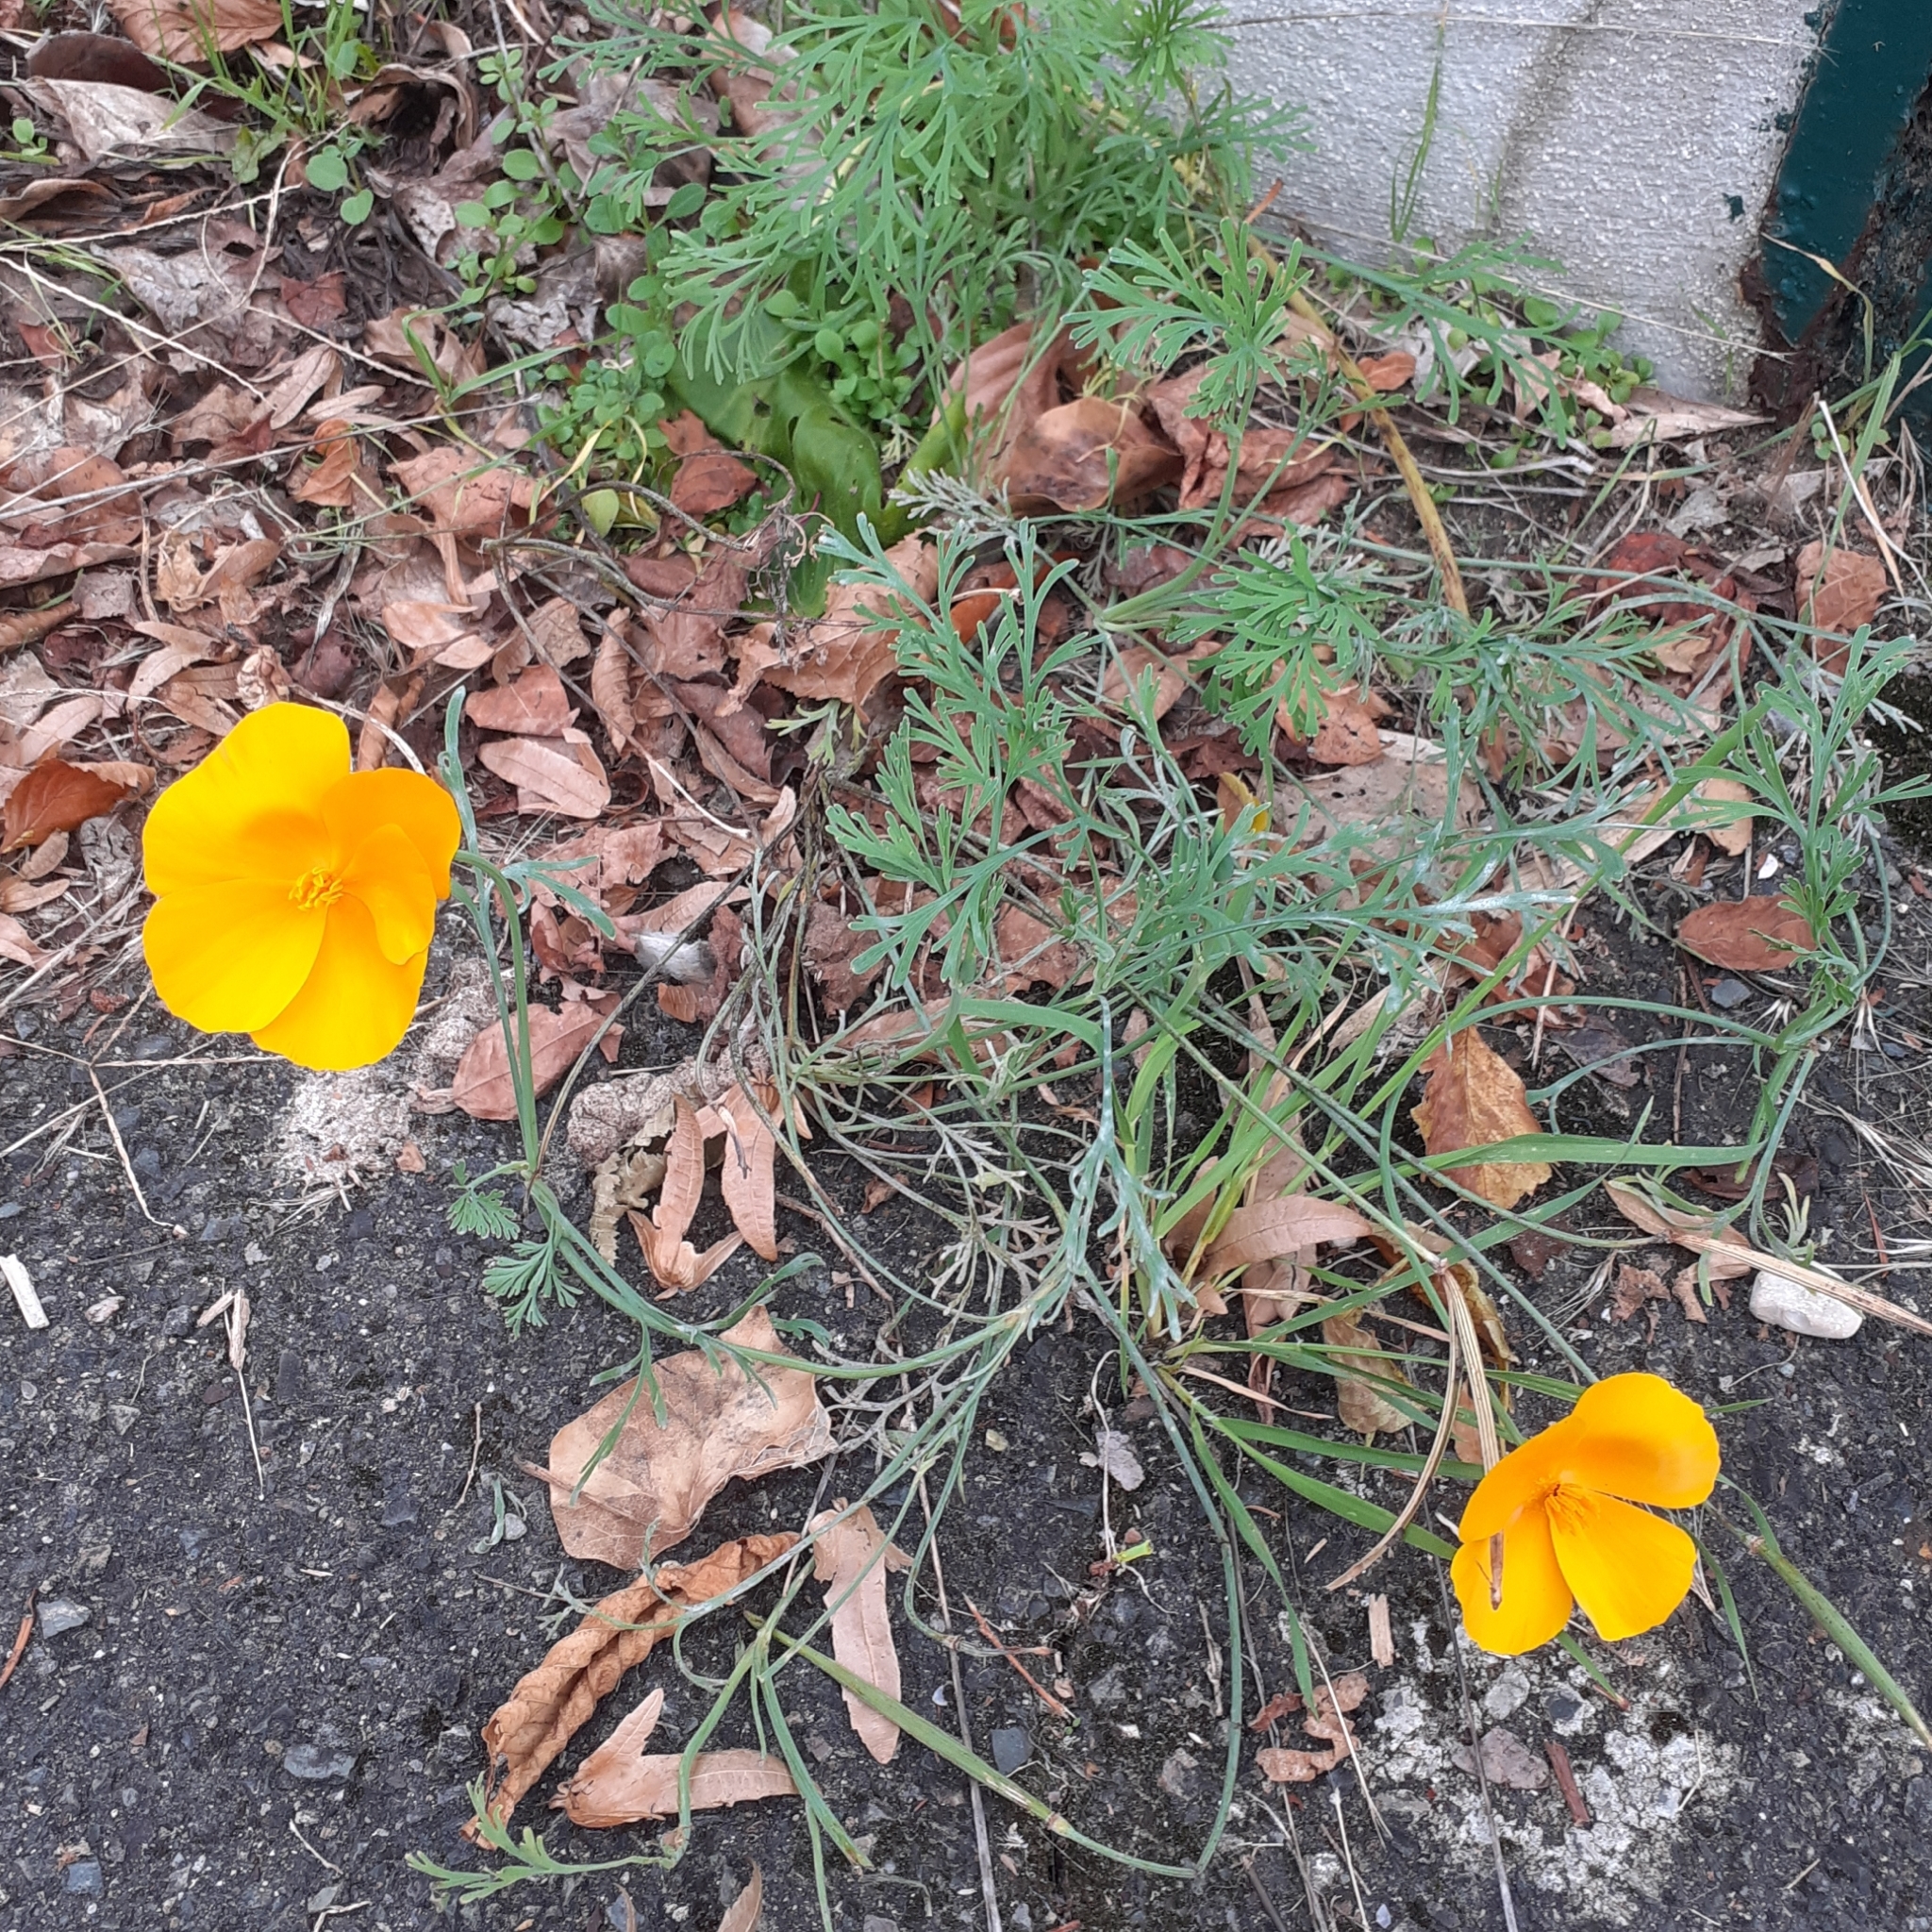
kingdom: Plantae
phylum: Tracheophyta
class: Magnoliopsida
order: Ranunculales
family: Papaveraceae
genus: Eschscholzia
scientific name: Eschscholzia californica
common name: California poppy
